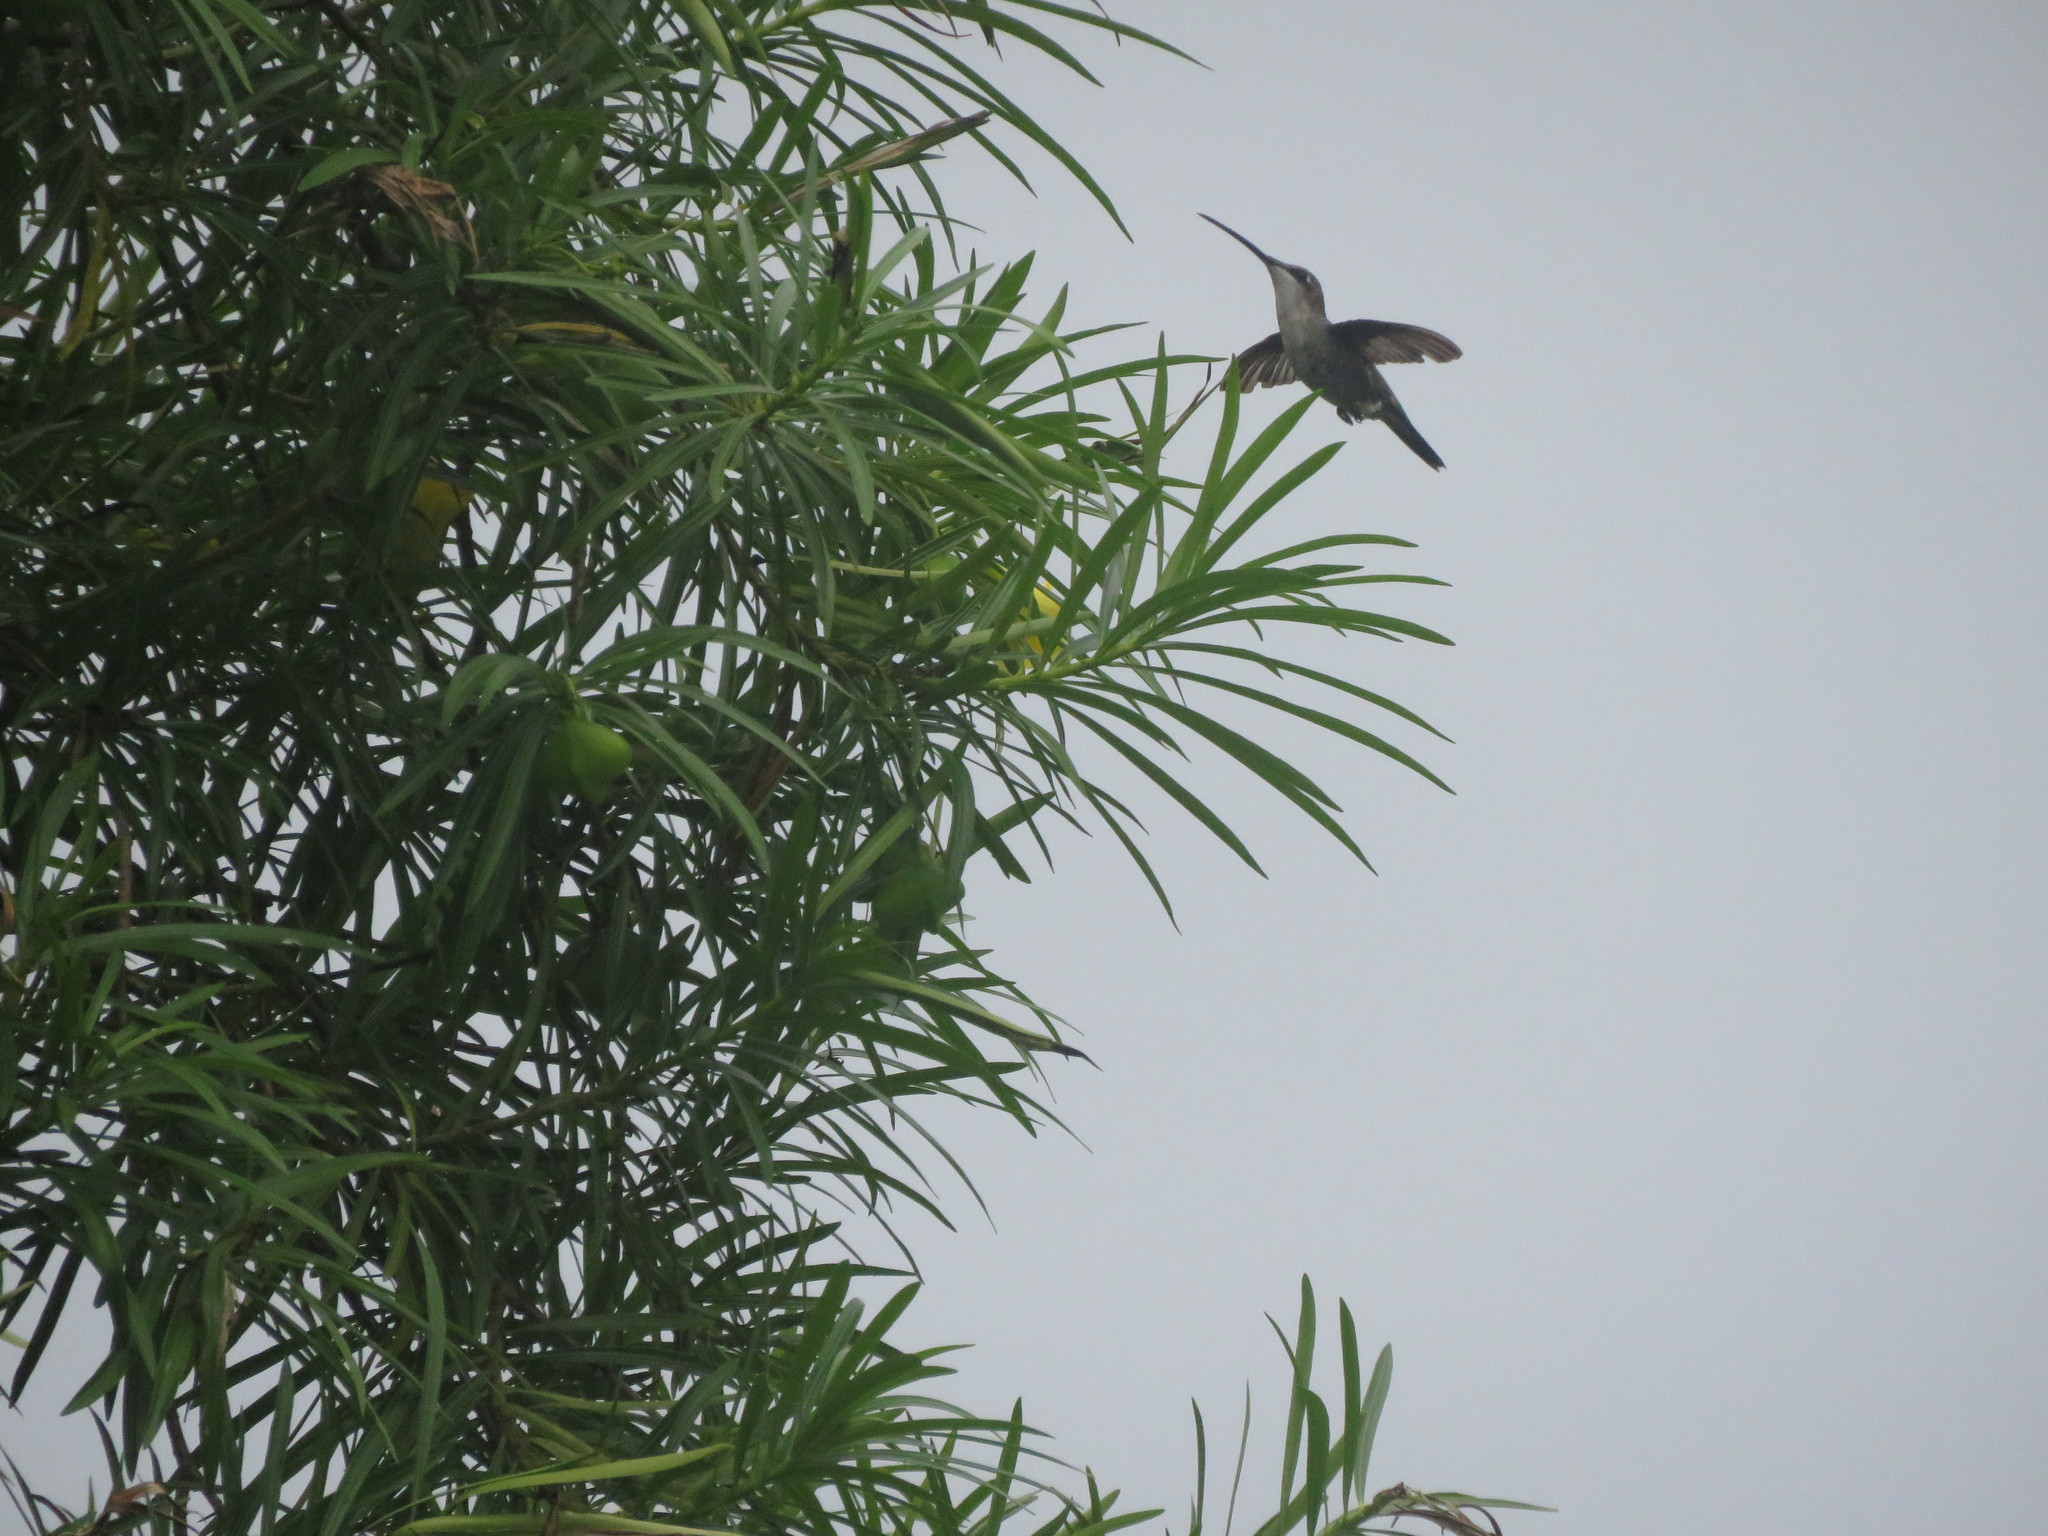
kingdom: Animalia
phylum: Chordata
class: Aves
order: Apodiformes
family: Trochilidae
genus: Heliomaster
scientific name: Heliomaster furcifer
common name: Blue-tufted starthroat
